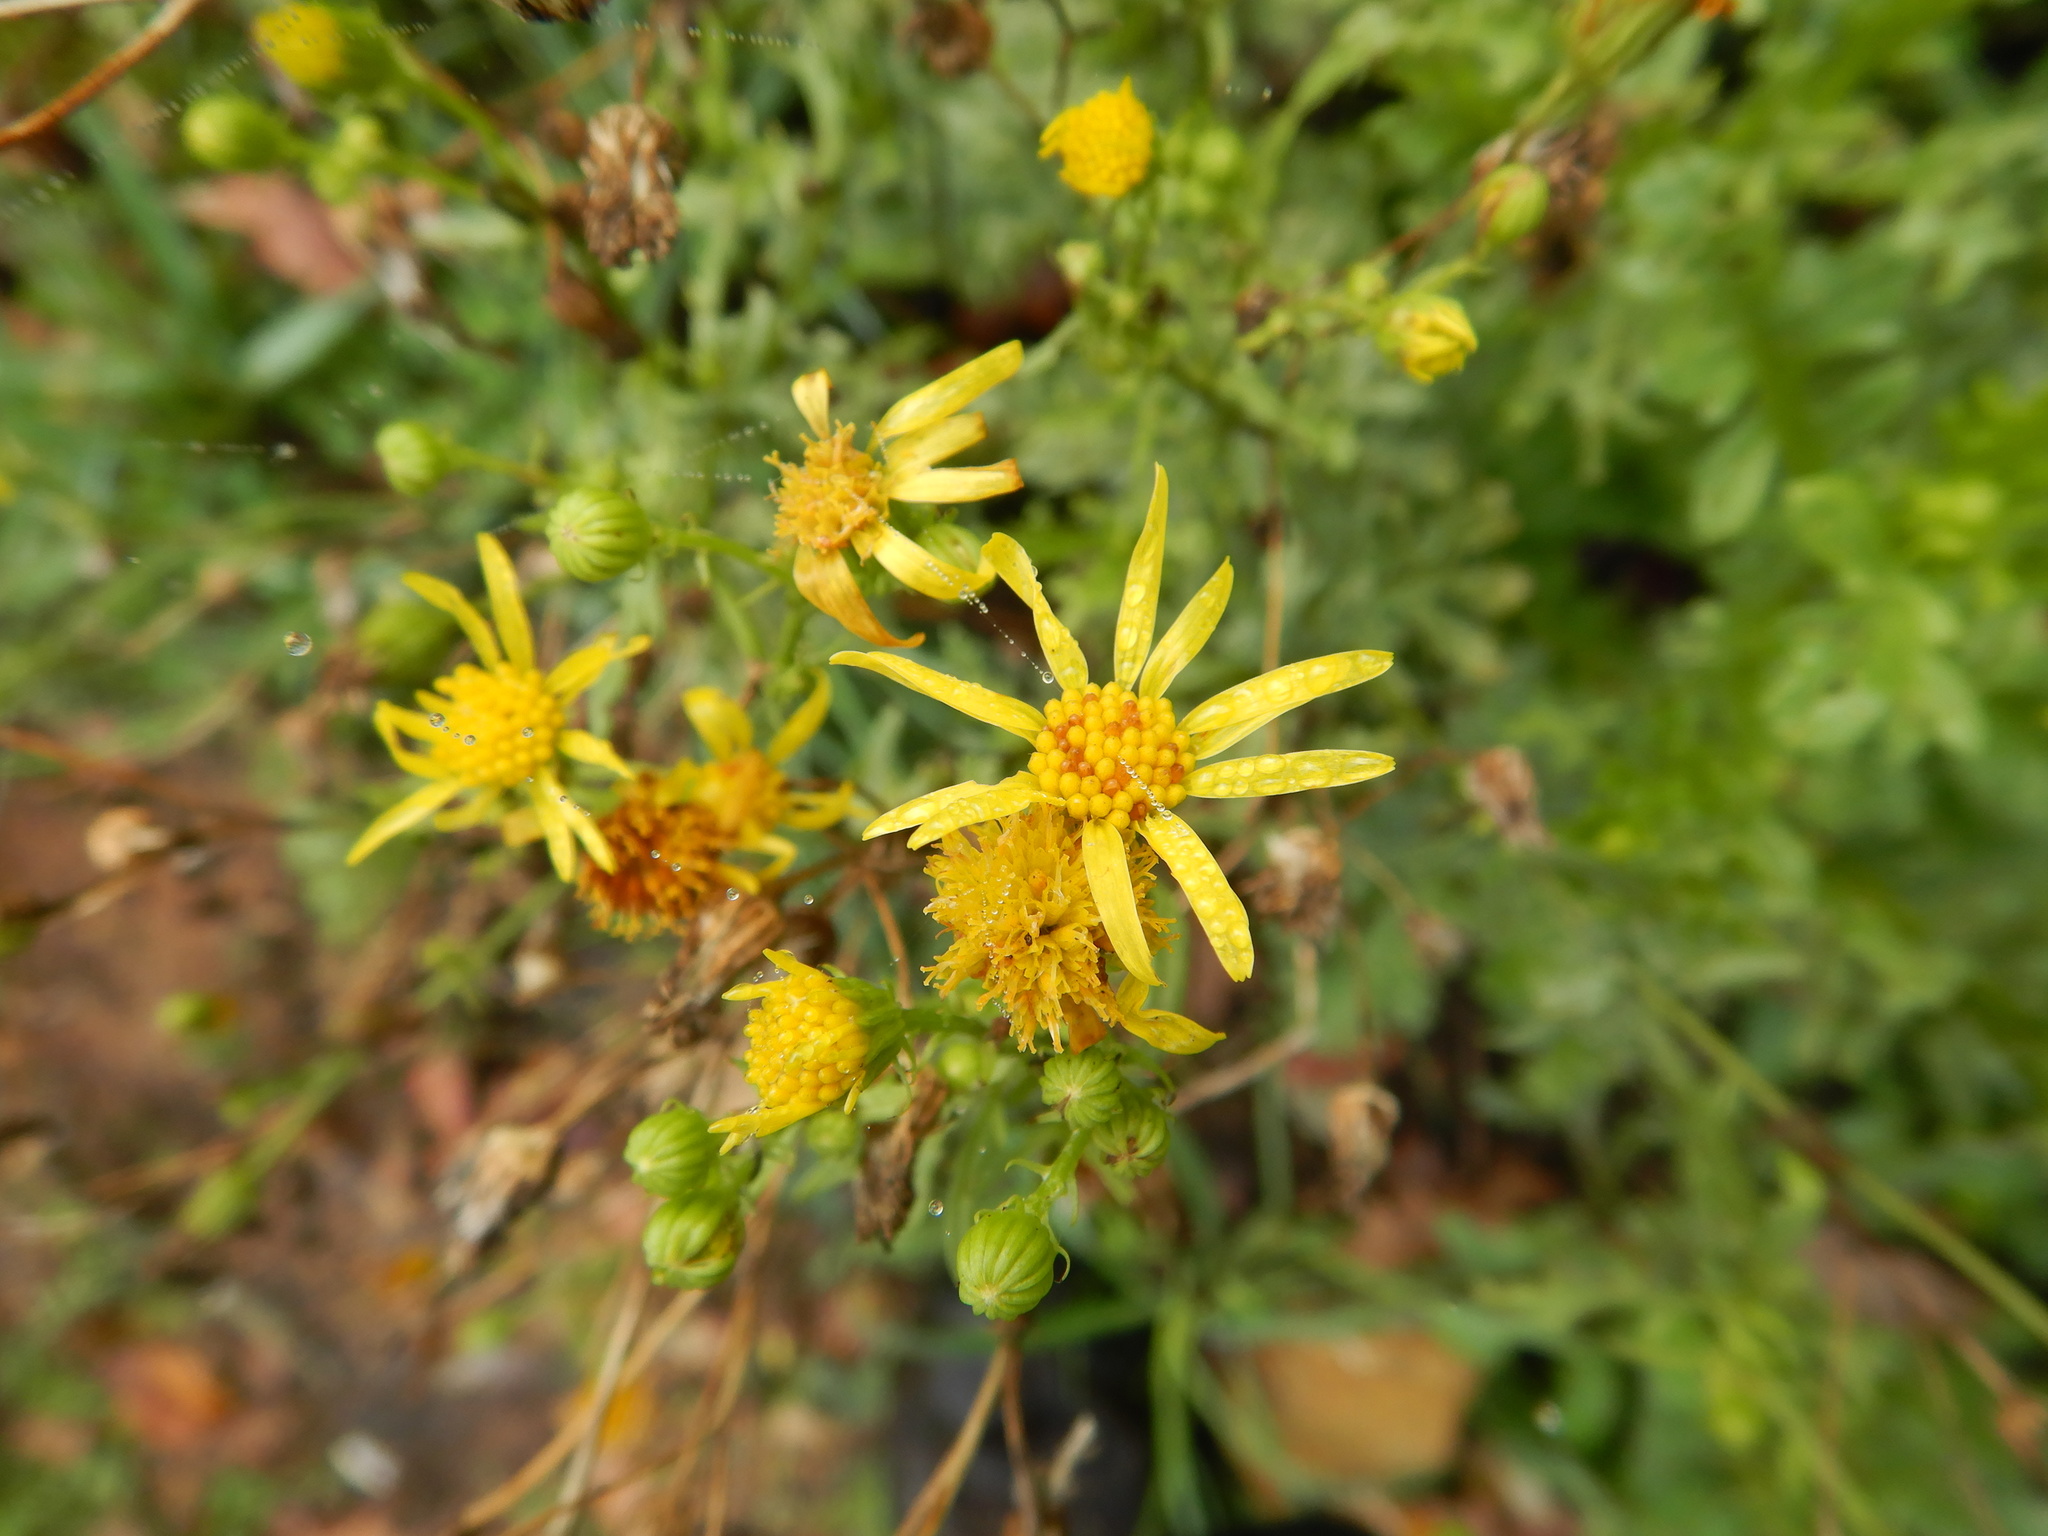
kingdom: Plantae
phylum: Tracheophyta
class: Magnoliopsida
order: Asterales
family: Asteraceae
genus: Jacobaea
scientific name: Jacobaea vulgaris
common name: Stinking willie
